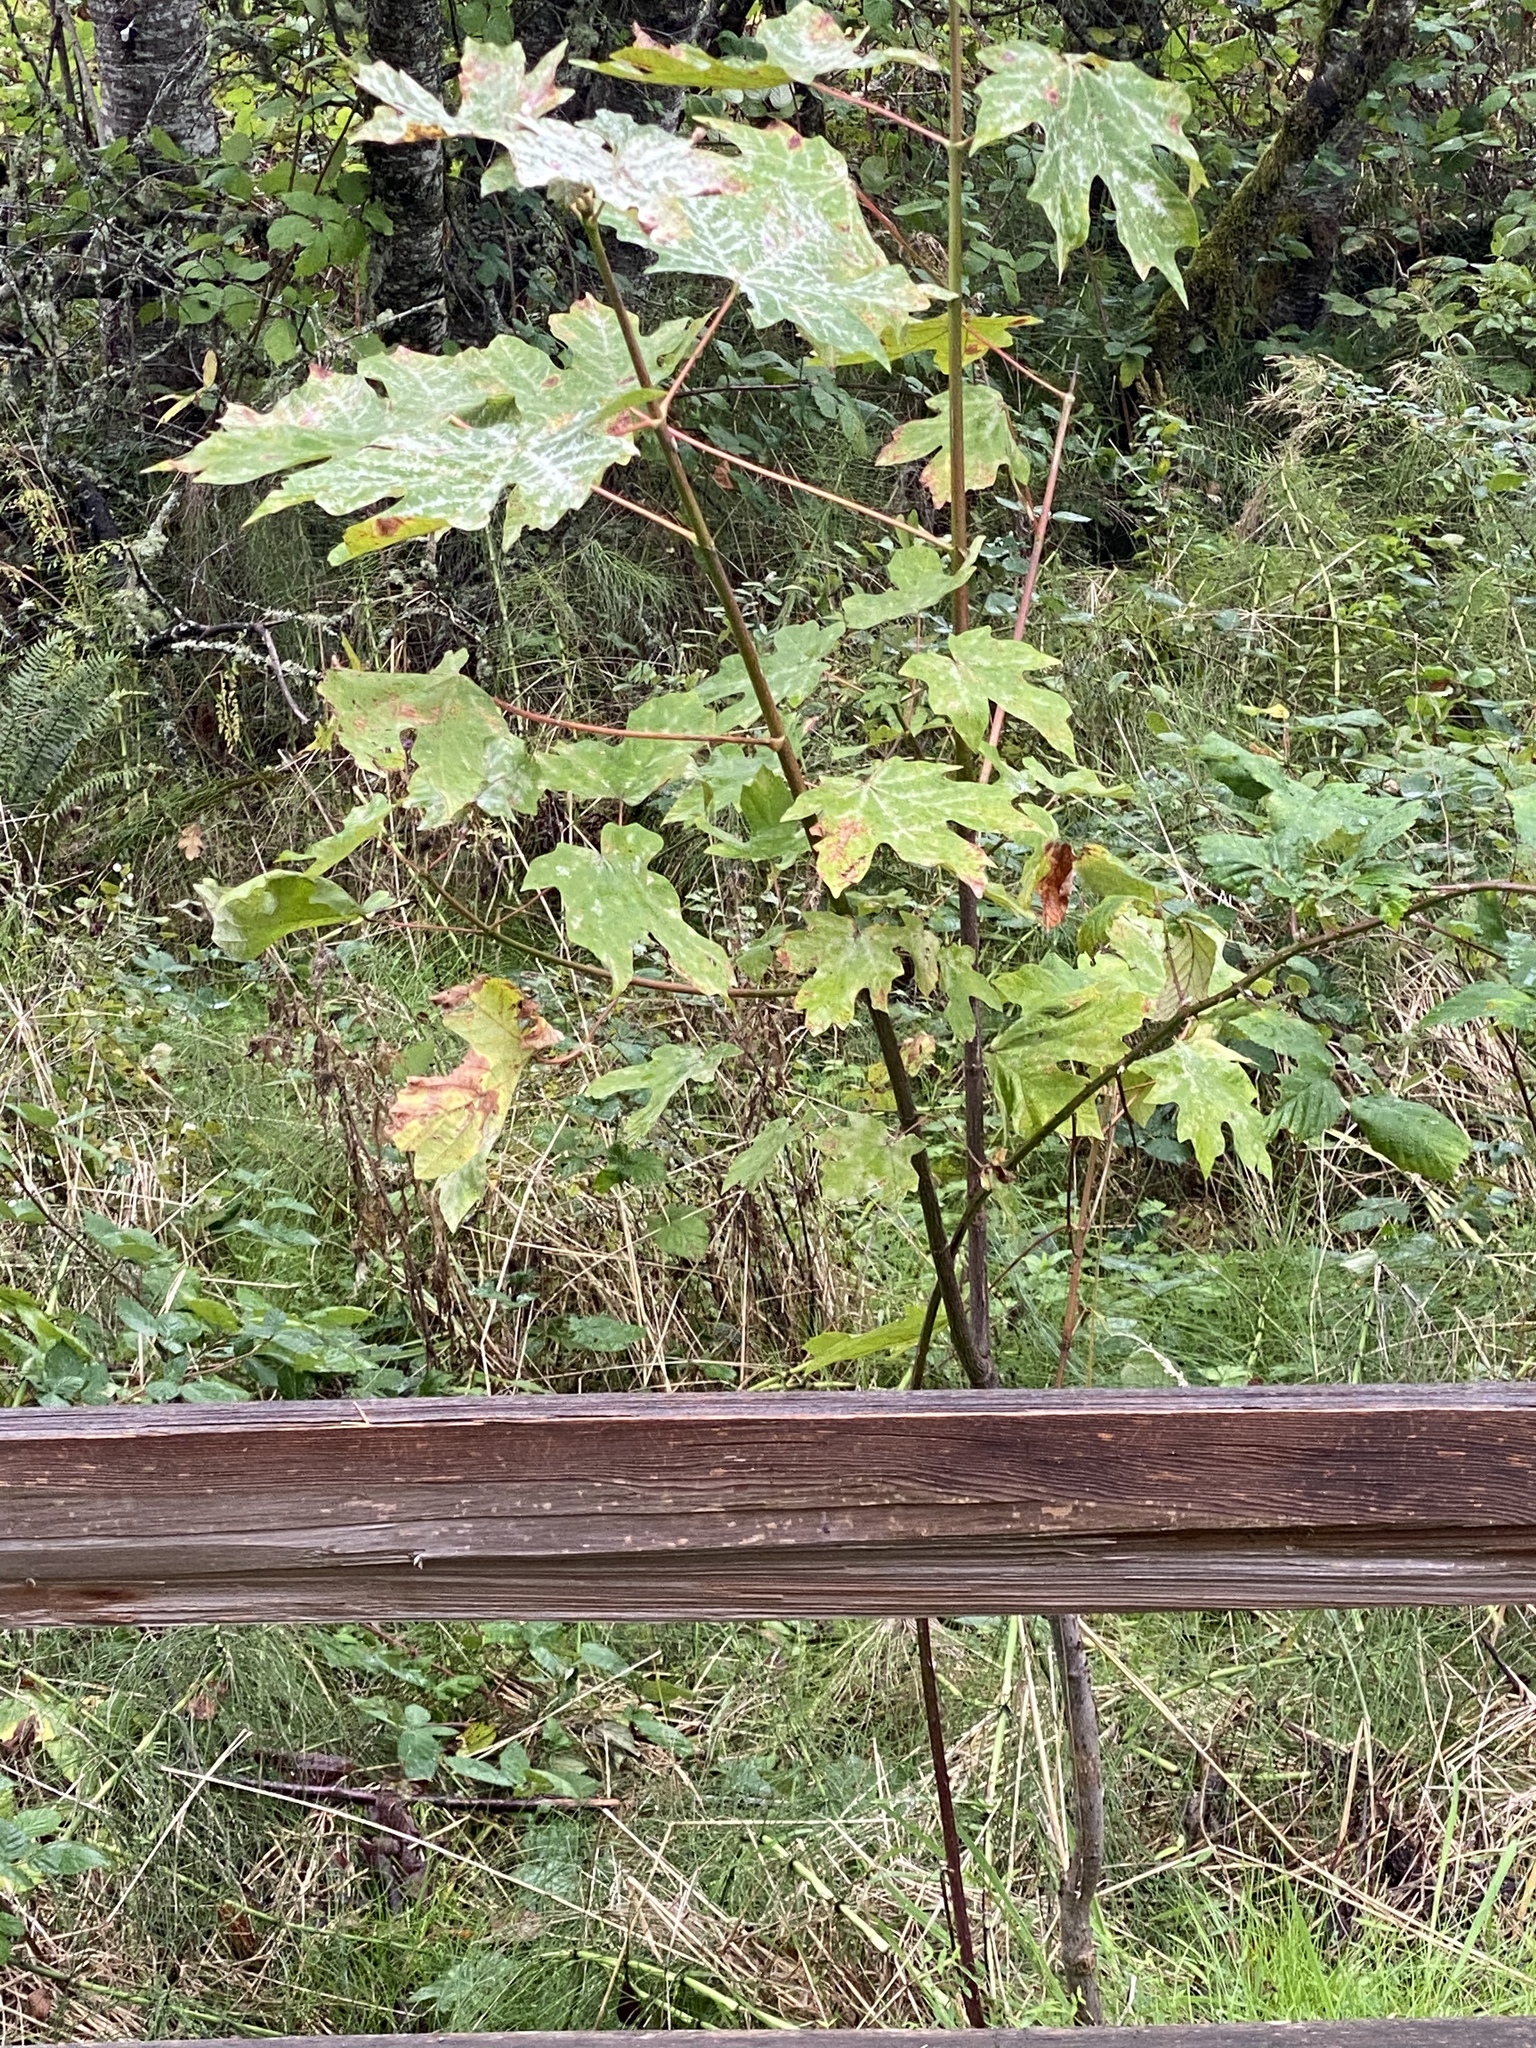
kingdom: Plantae
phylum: Tracheophyta
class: Magnoliopsida
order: Sapindales
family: Sapindaceae
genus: Acer
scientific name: Acer macrophyllum
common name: Oregon maple
